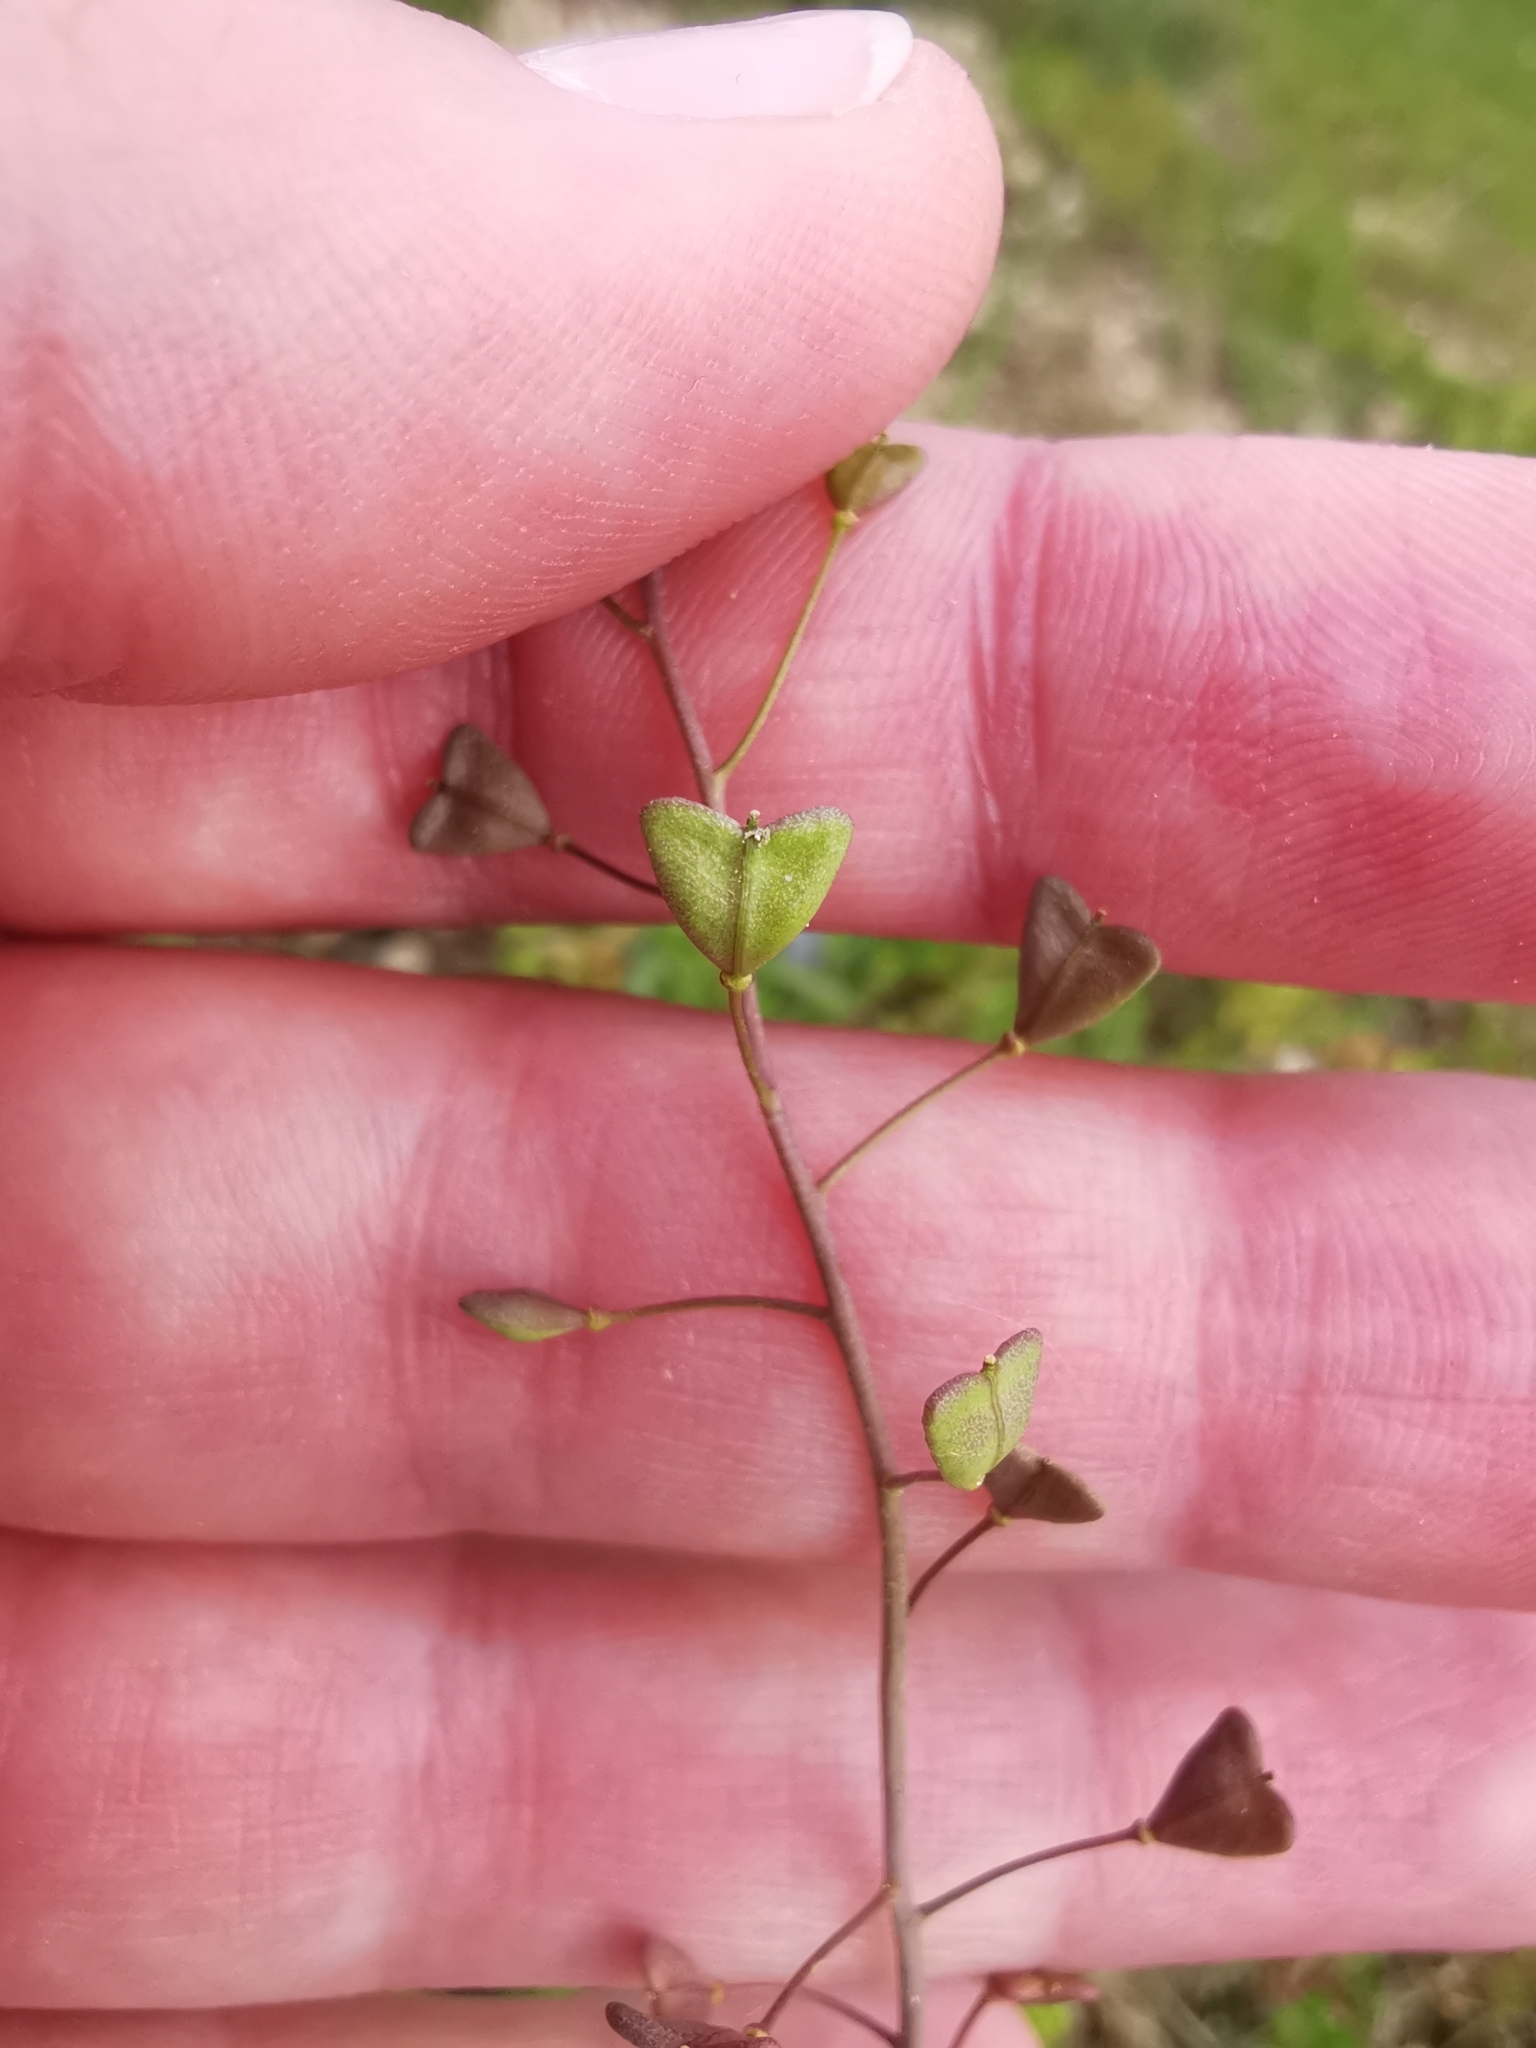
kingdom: Plantae
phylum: Tracheophyta
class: Magnoliopsida
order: Brassicales
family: Brassicaceae
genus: Capsella
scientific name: Capsella bursa-pastoris
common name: Shepherd's purse
